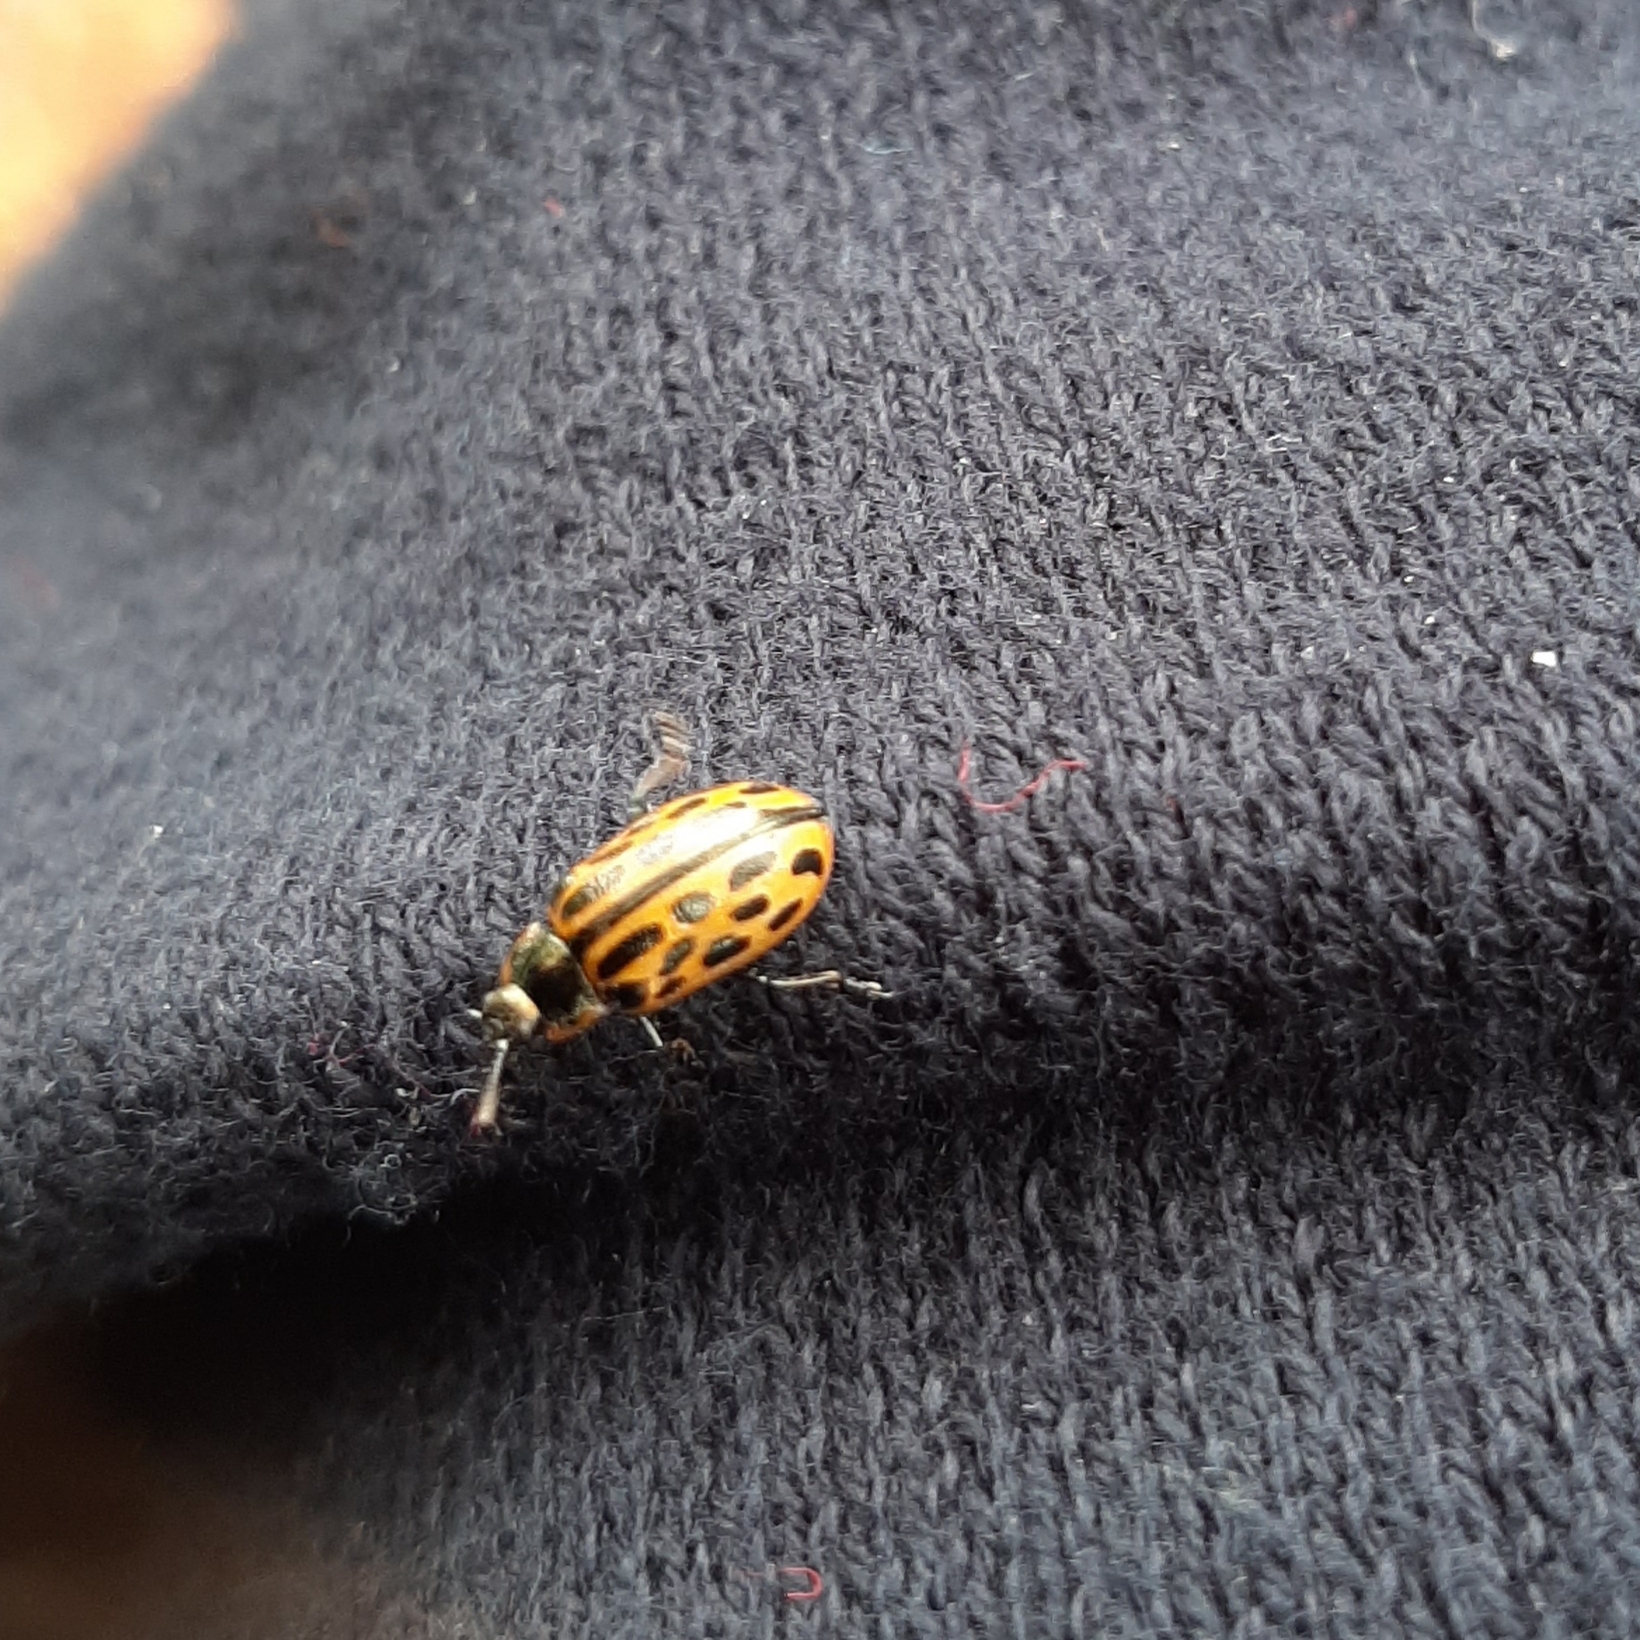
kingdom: Animalia
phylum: Arthropoda
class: Insecta
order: Coleoptera
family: Chrysomelidae
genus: Chrysomela
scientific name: Chrysomela vigintipunctata
